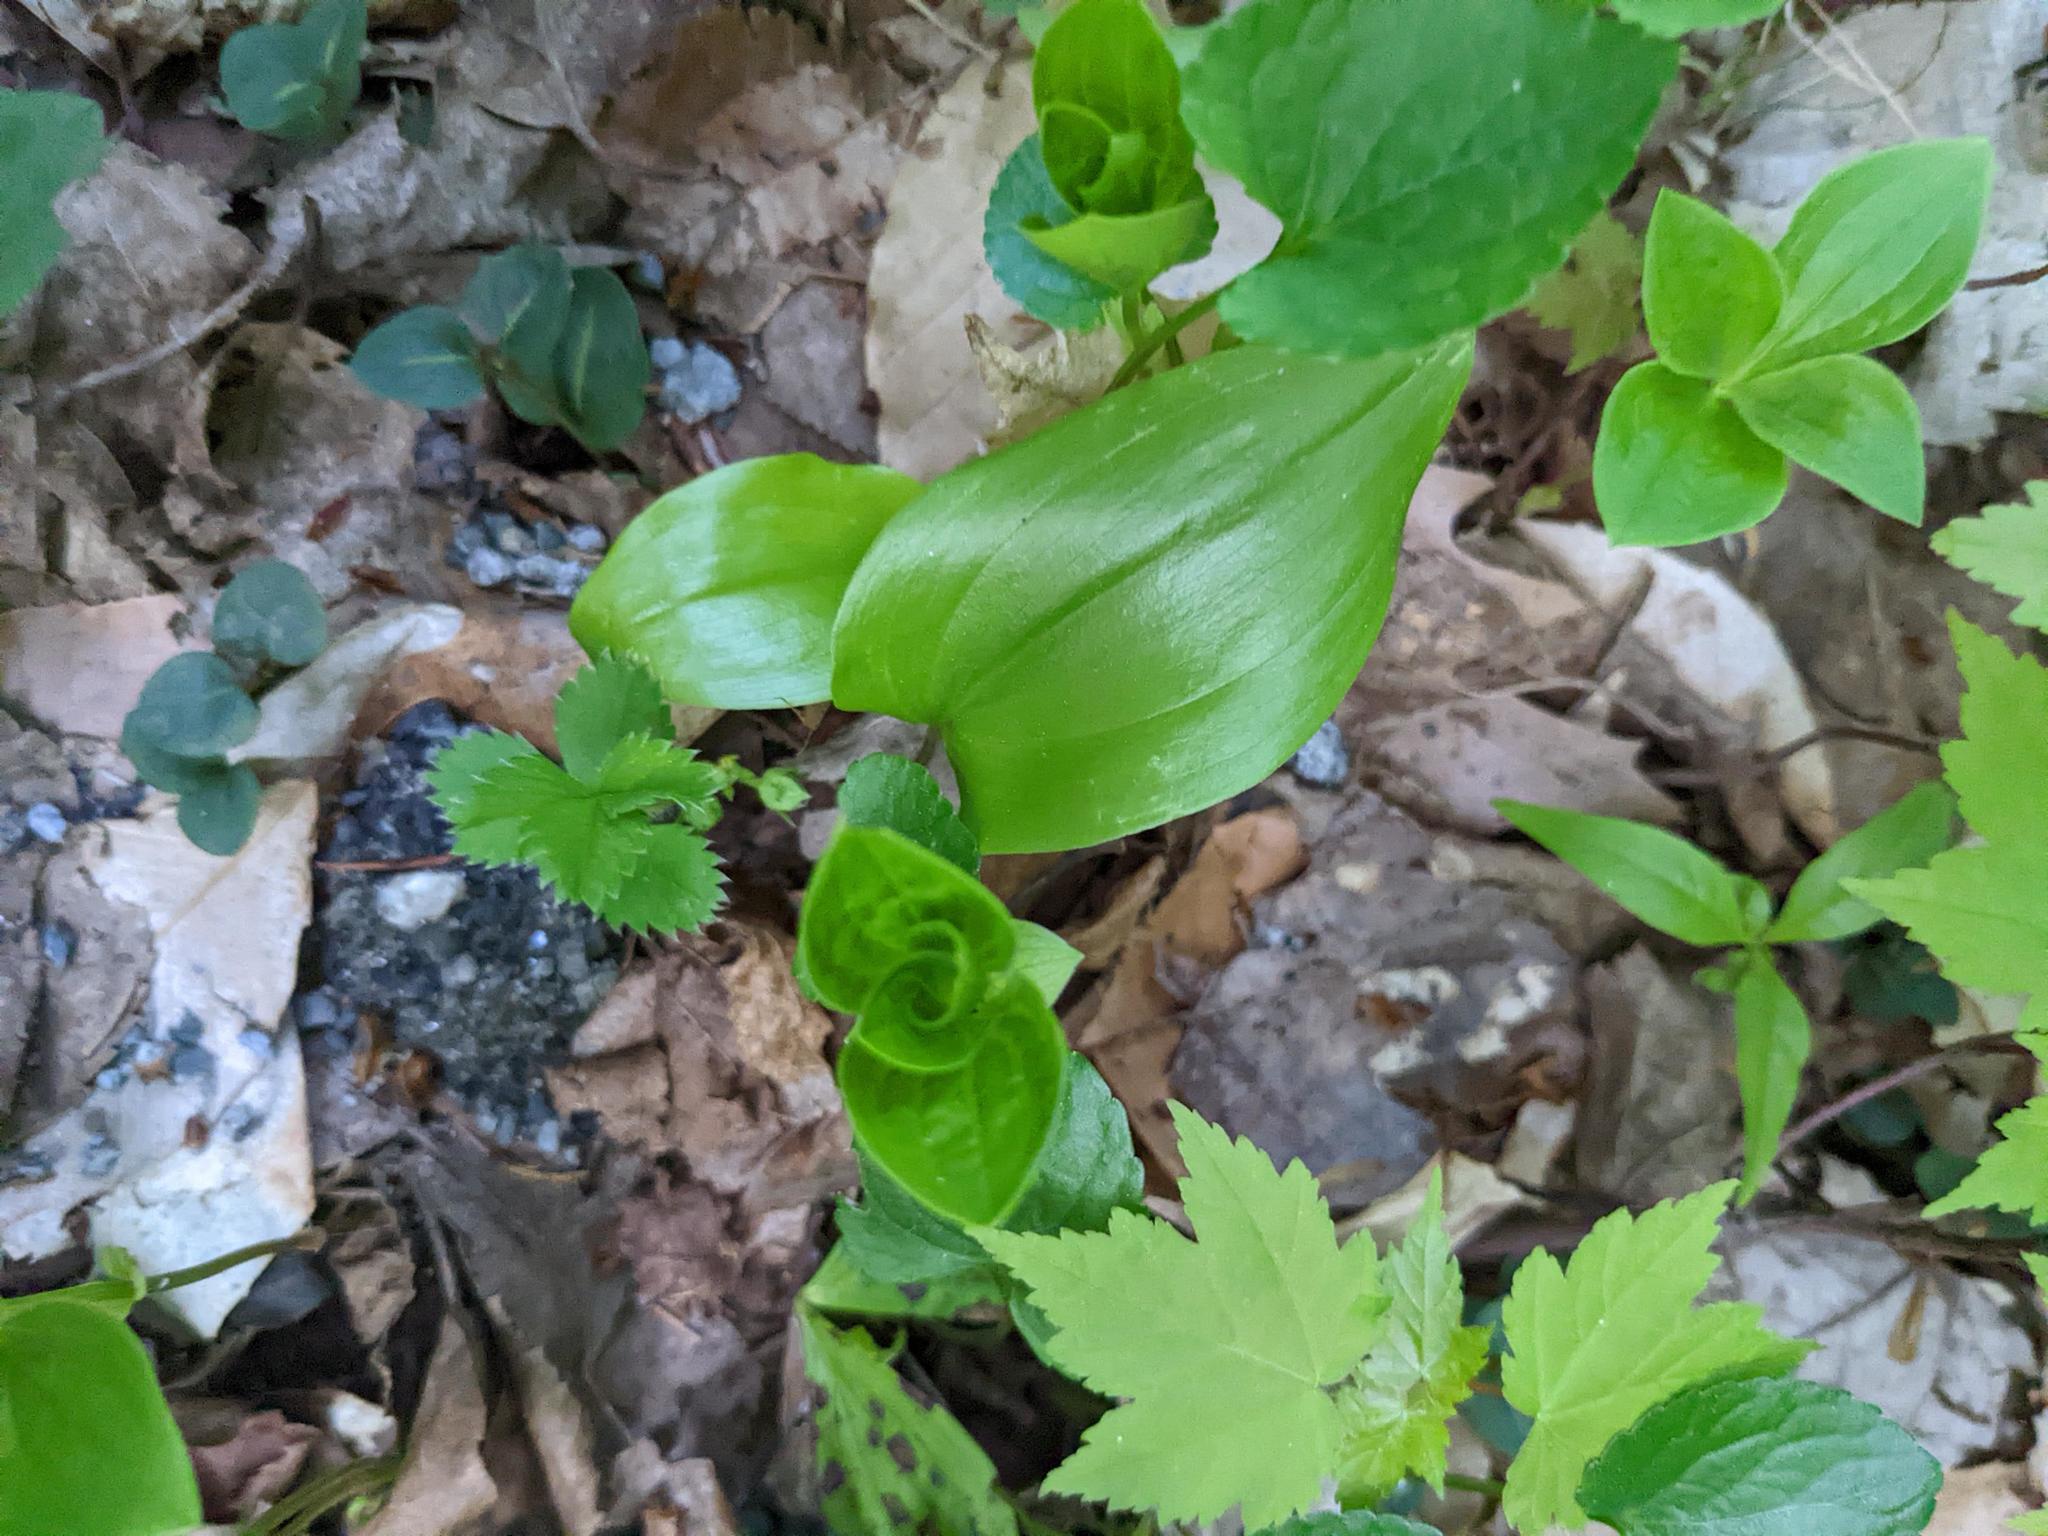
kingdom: Plantae
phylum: Tracheophyta
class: Liliopsida
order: Asparagales
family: Asparagaceae
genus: Maianthemum
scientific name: Maianthemum canadense
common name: False lily-of-the-valley
